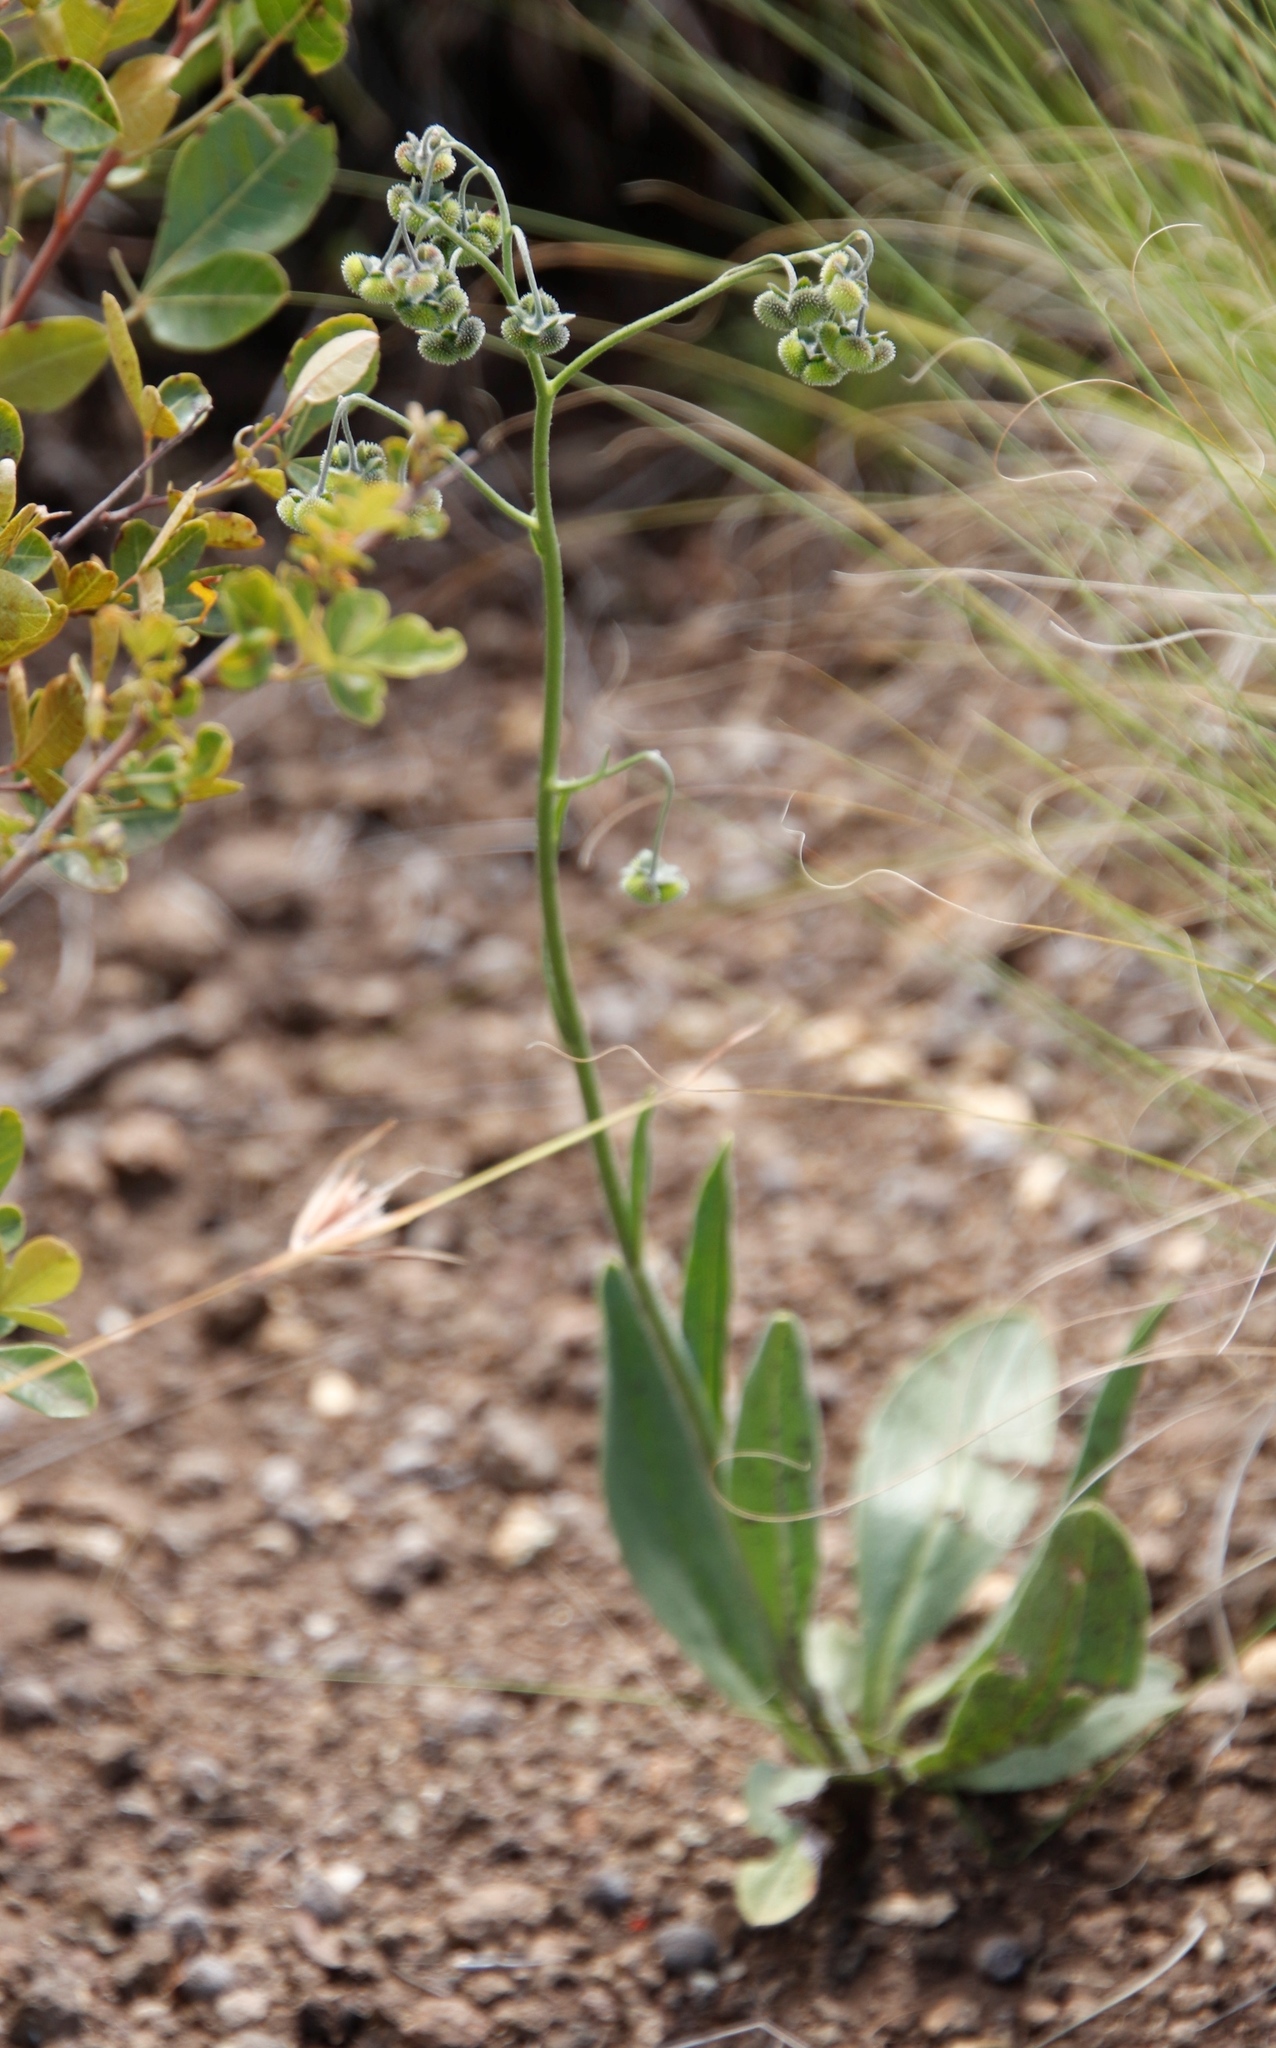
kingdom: Plantae
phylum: Tracheophyta
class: Magnoliopsida
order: Boraginales
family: Boraginaceae
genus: Cynoglossum
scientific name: Cynoglossum hispidum
